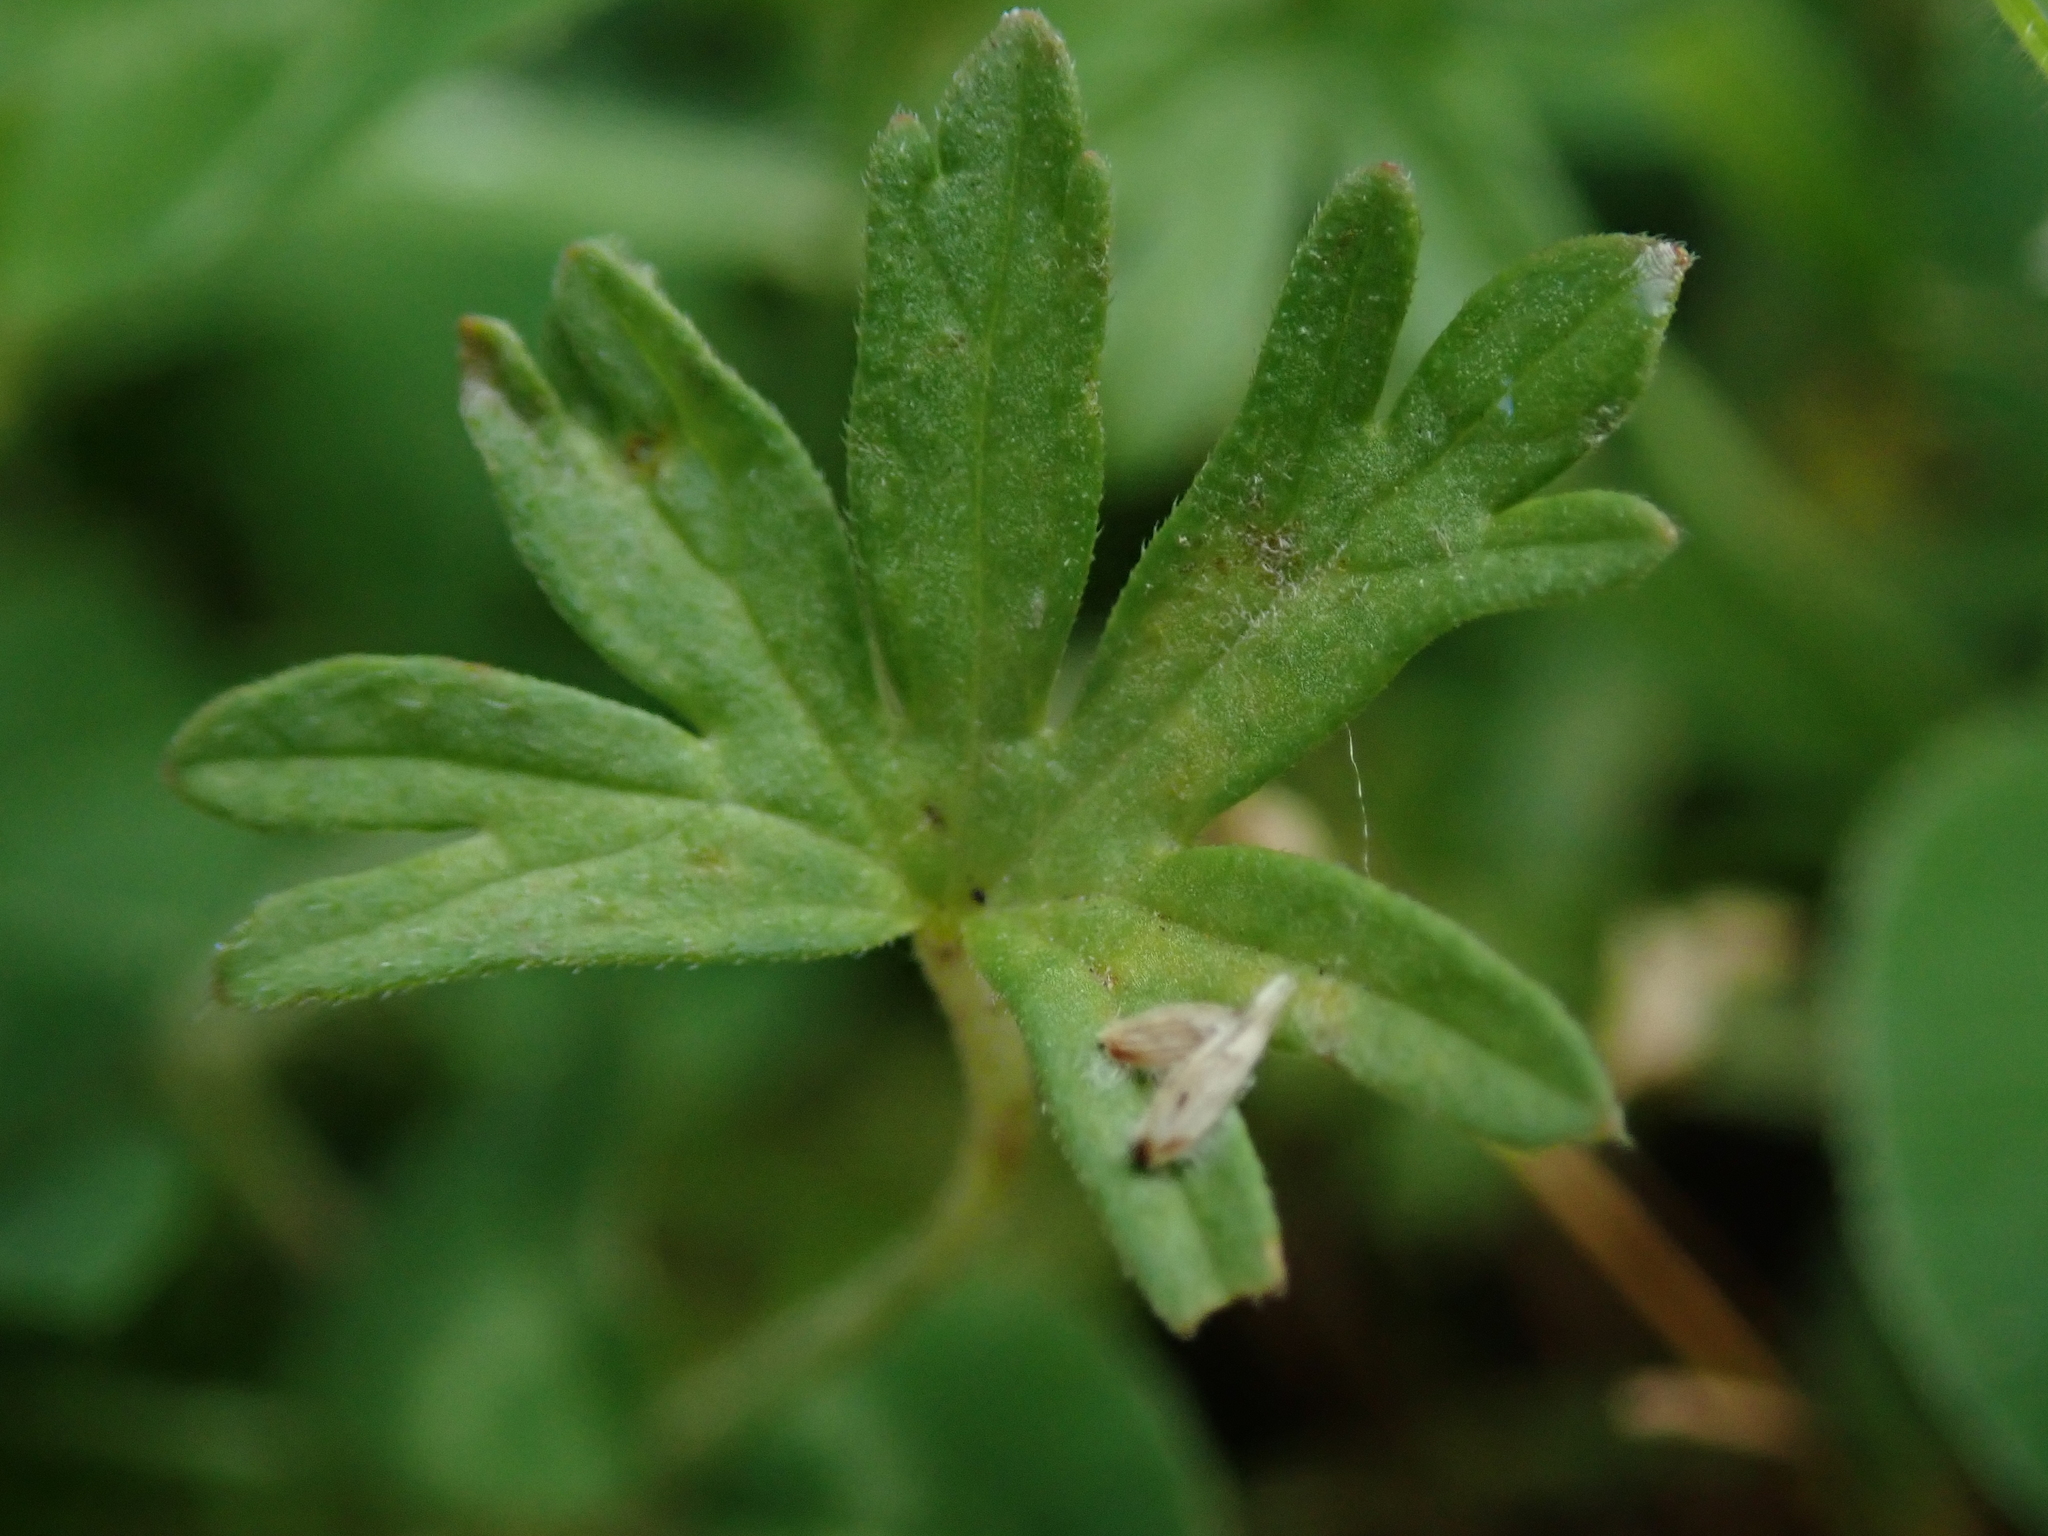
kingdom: Plantae
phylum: Tracheophyta
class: Magnoliopsida
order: Geraniales
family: Geraniaceae
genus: Geranium
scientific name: Geranium dissectum
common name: Cut-leaved crane's-bill
